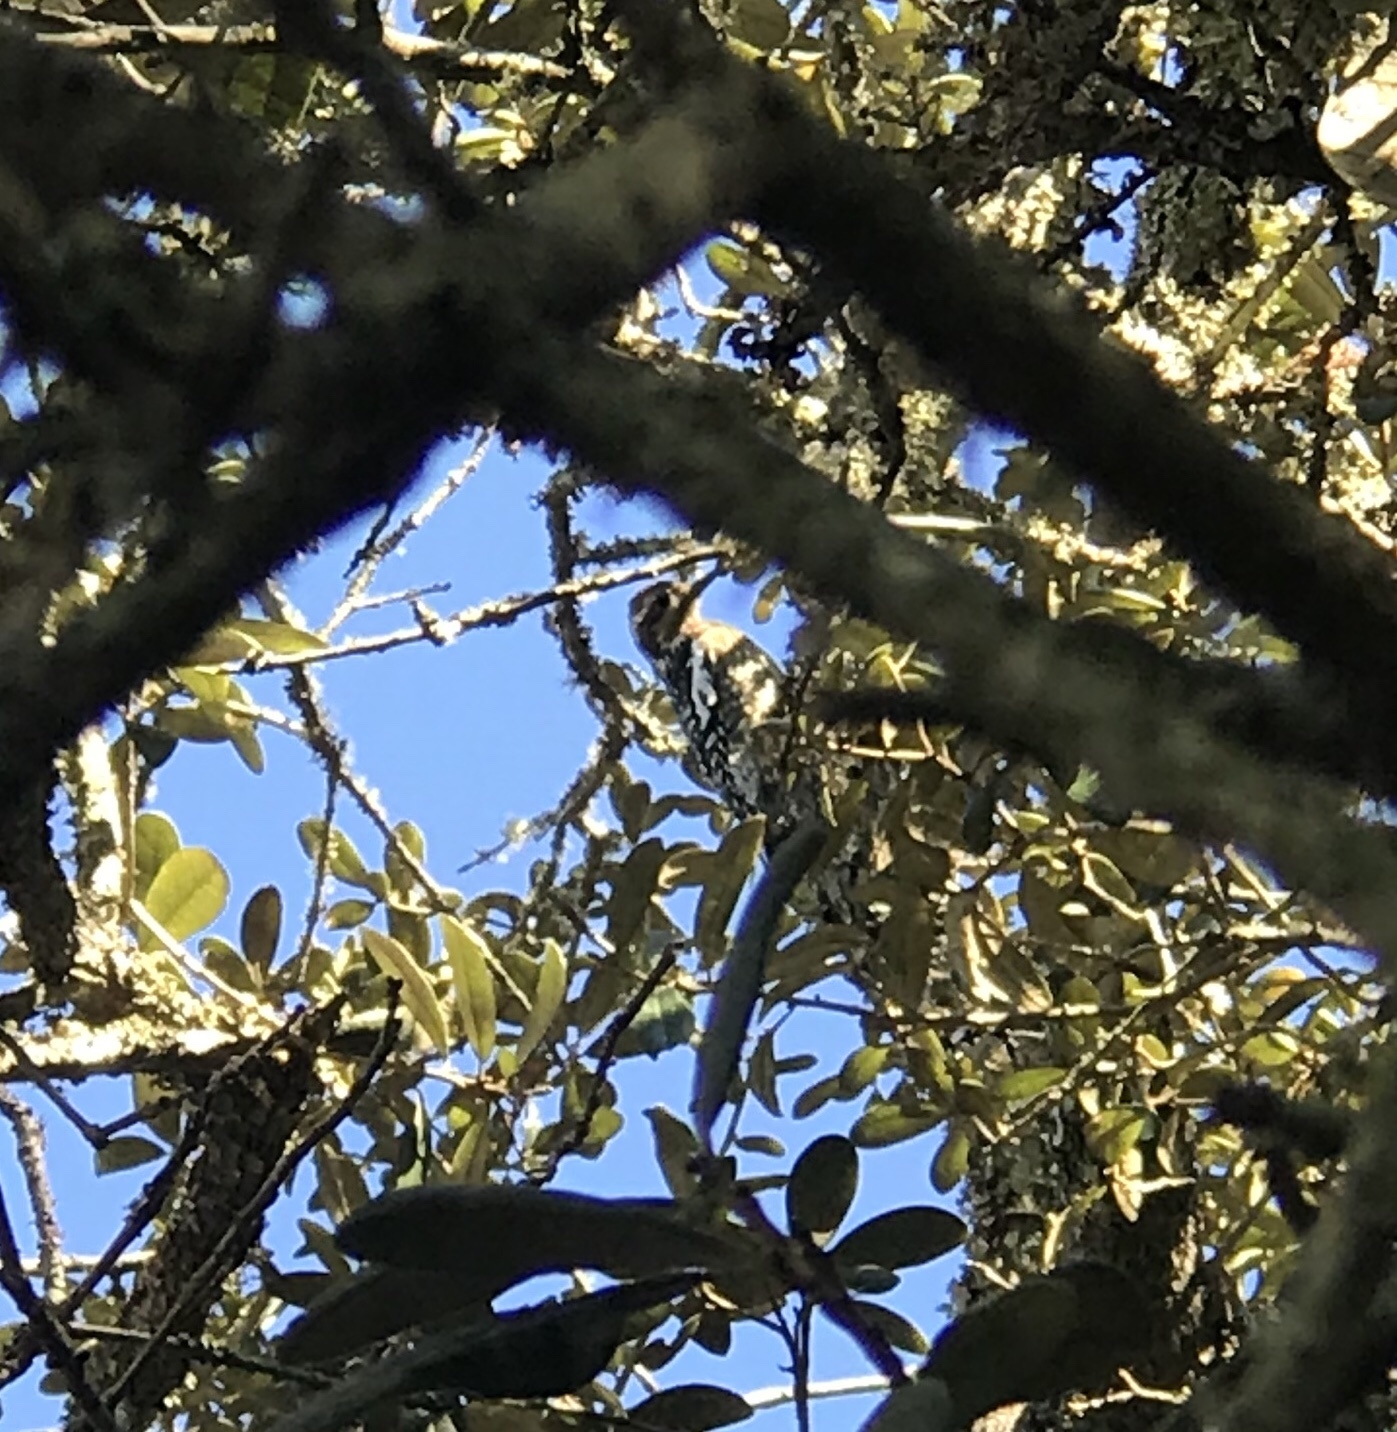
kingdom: Animalia
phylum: Chordata
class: Aves
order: Piciformes
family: Picidae
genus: Sphyrapicus
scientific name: Sphyrapicus varius
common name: Yellow-bellied sapsucker
